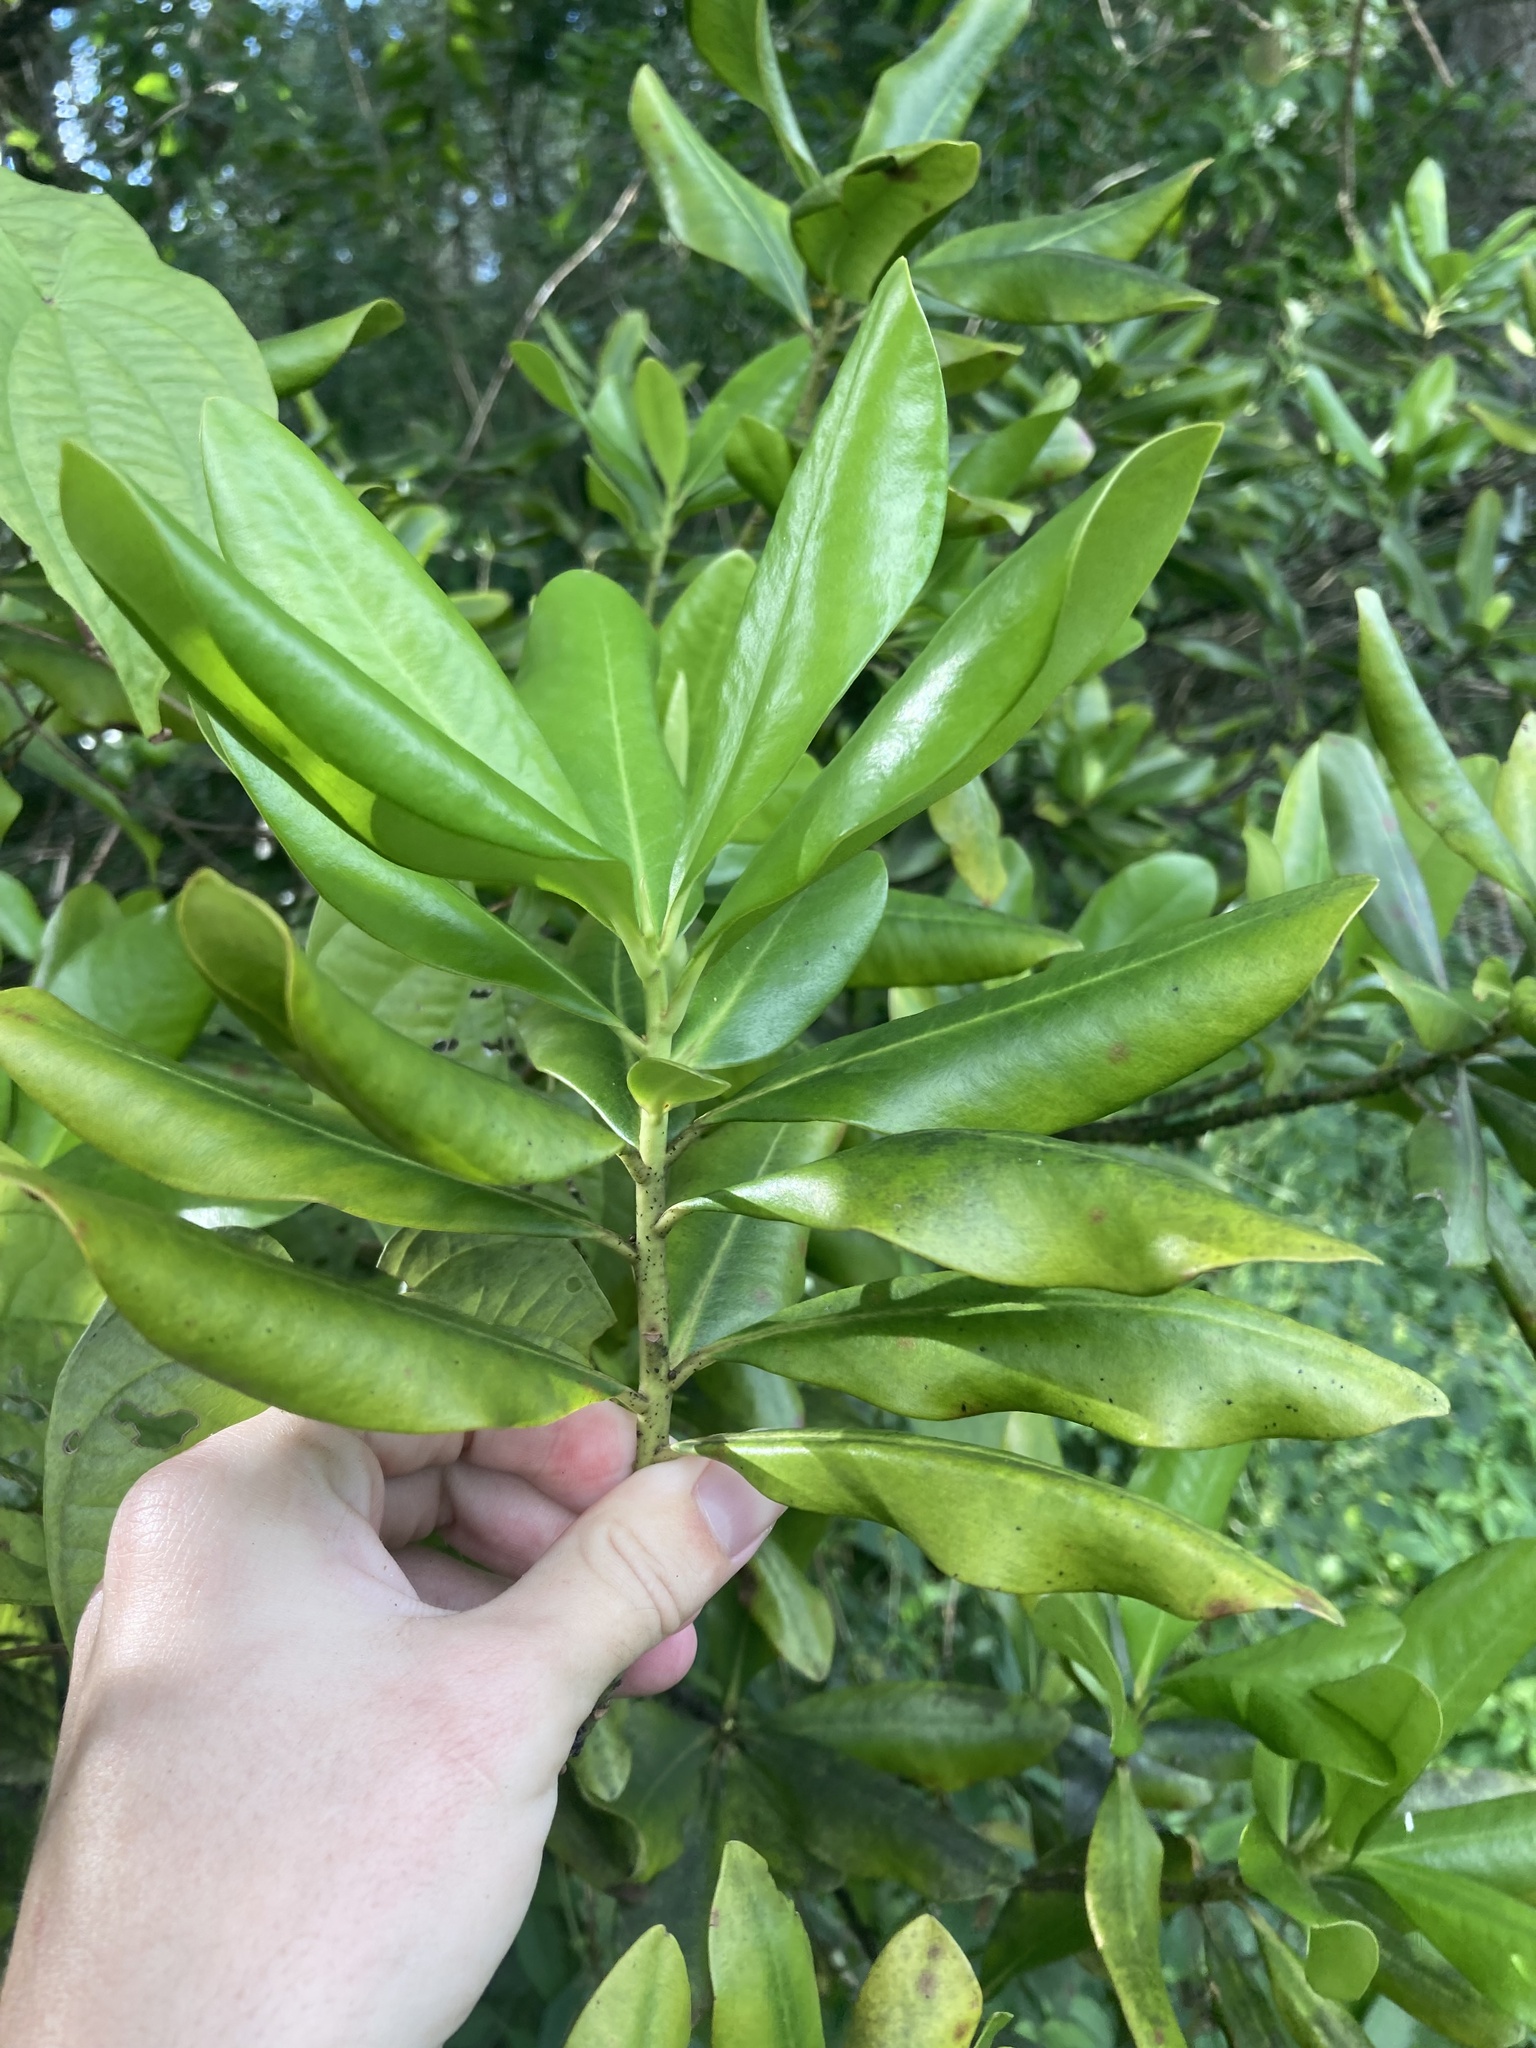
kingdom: Plantae
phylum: Tracheophyta
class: Magnoliopsida
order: Ericales
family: Primulaceae
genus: Myrsine
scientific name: Myrsine floridana
